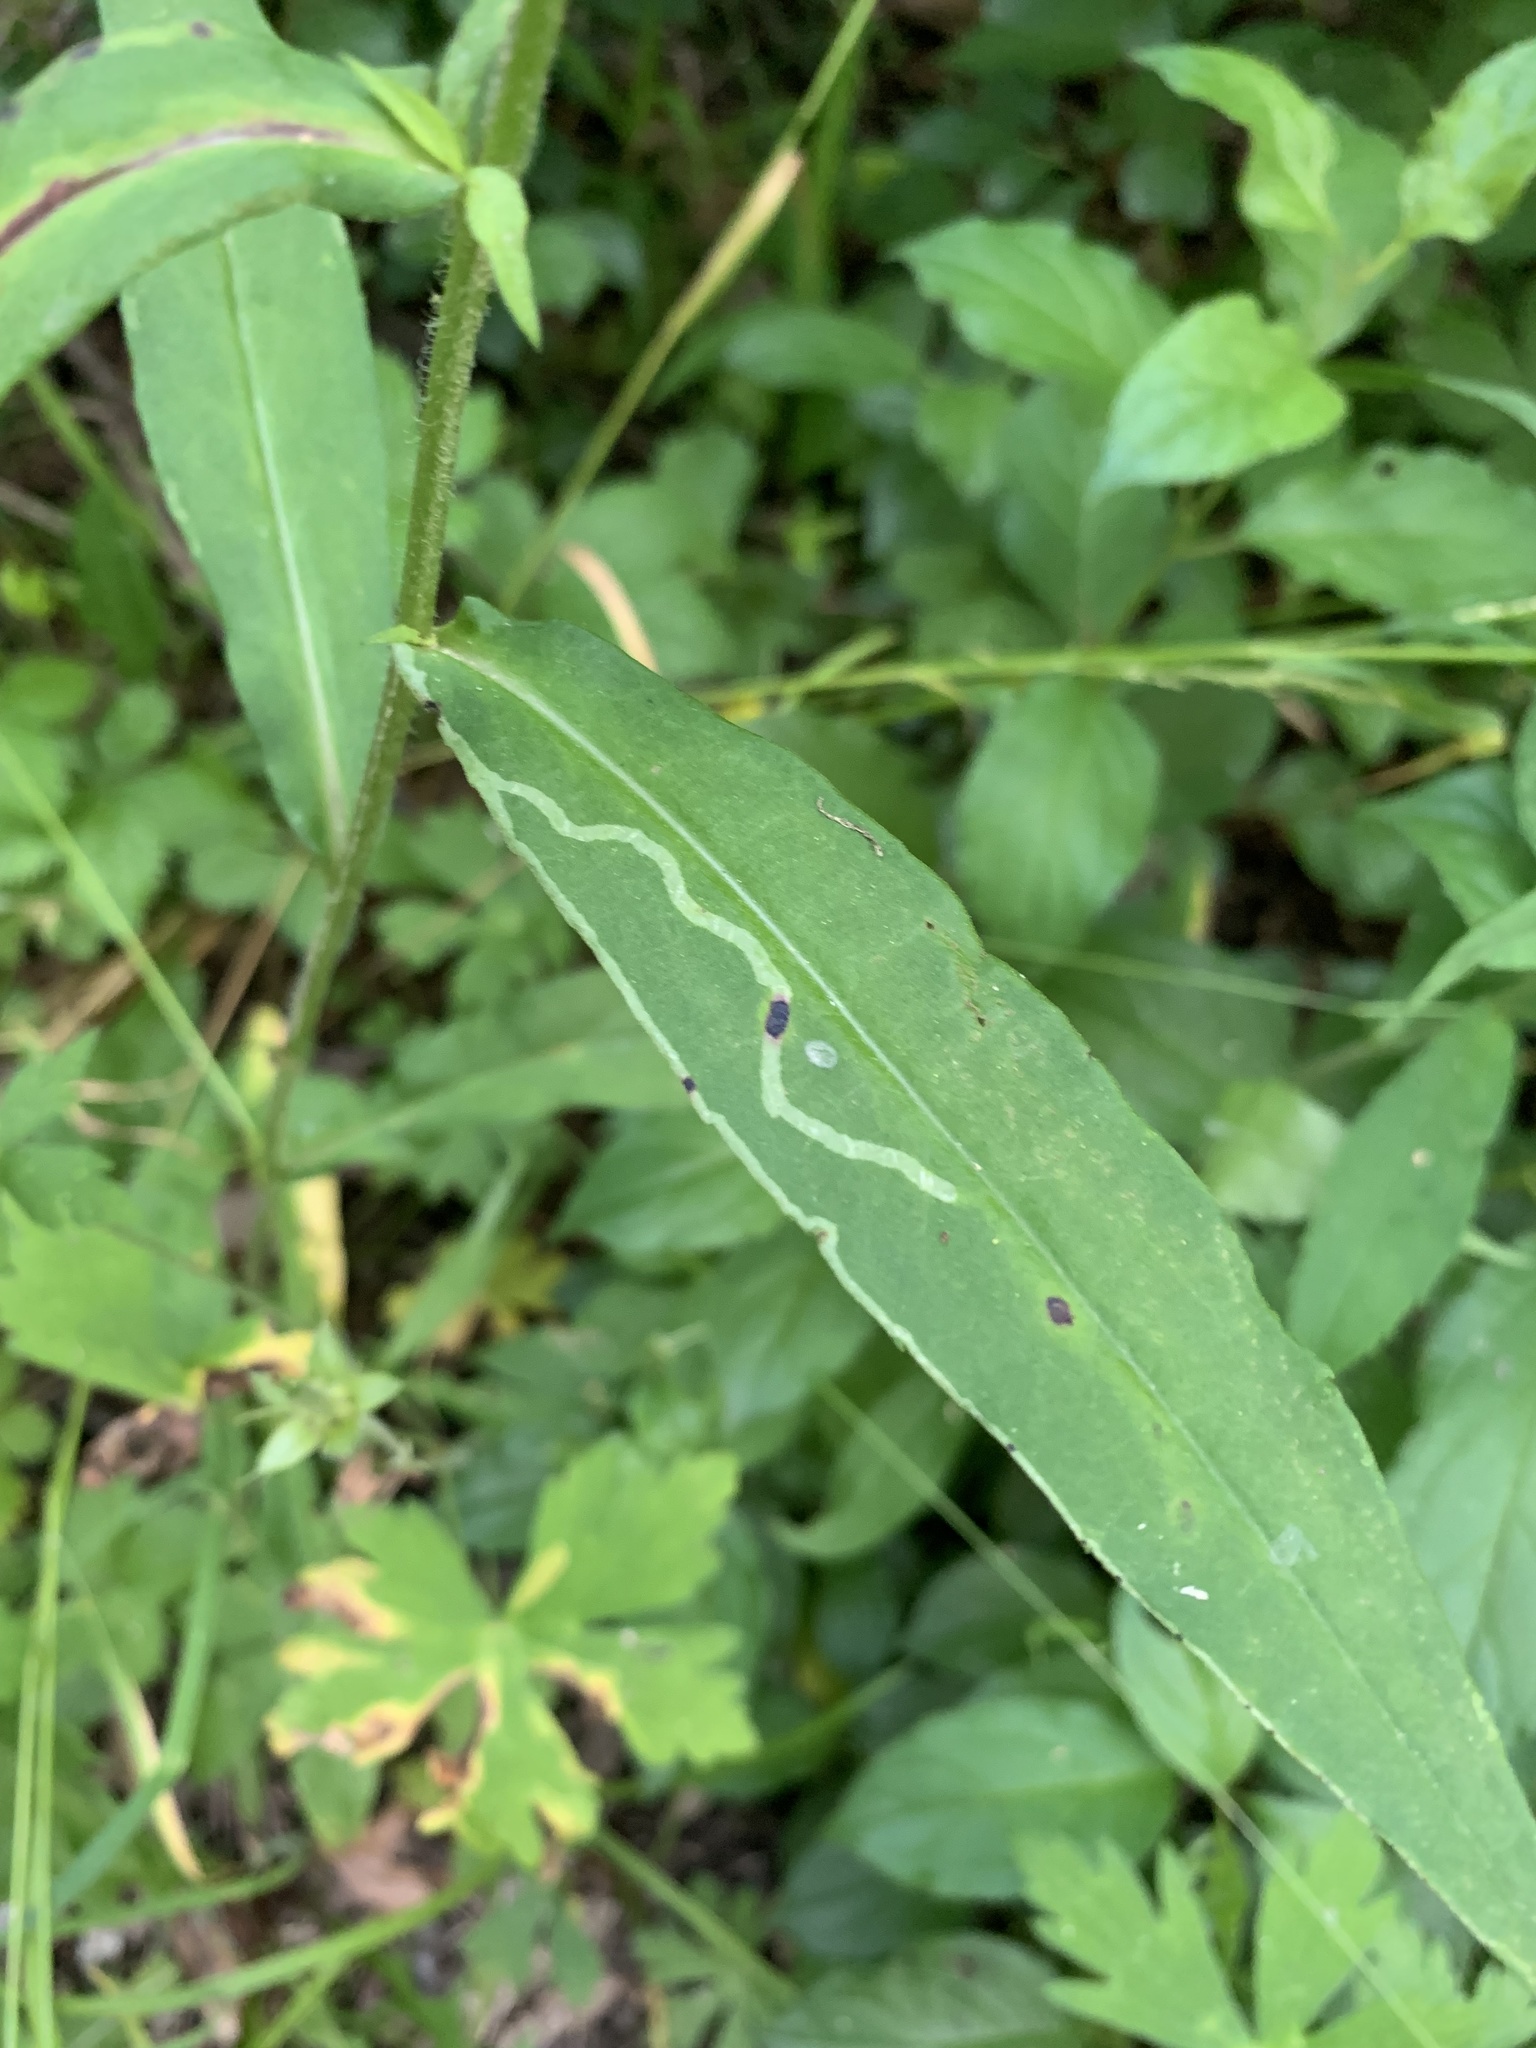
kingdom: Animalia
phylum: Arthropoda
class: Insecta
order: Diptera
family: Agromyzidae
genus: Ophiomyia
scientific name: Ophiomyia parda
